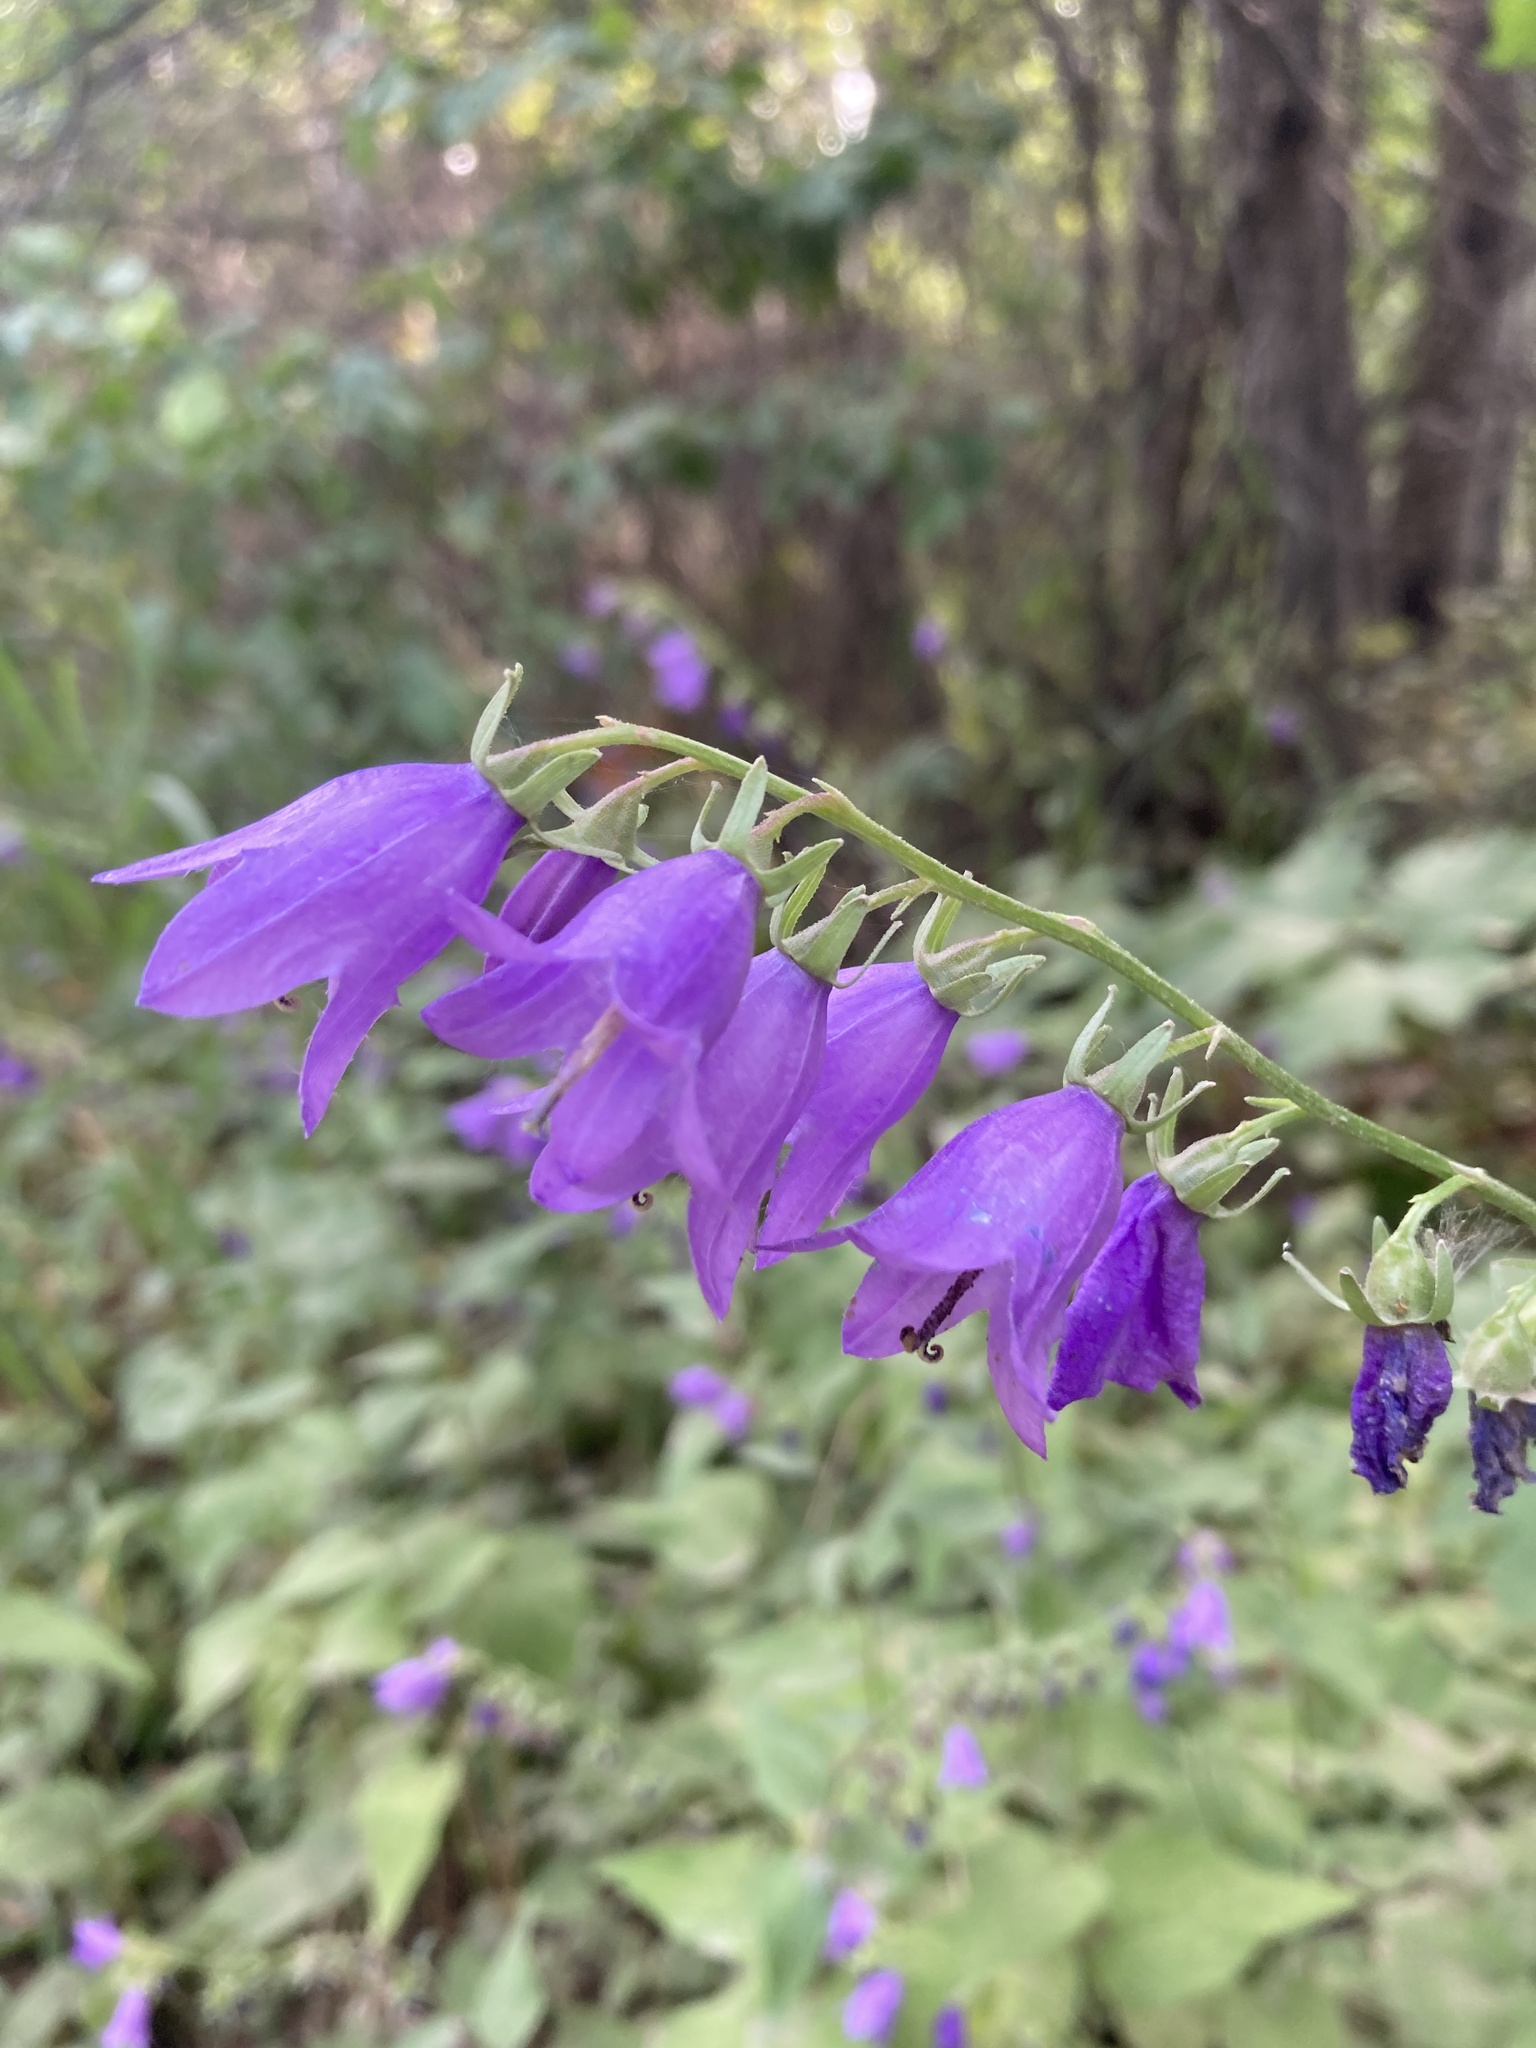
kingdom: Plantae
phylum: Tracheophyta
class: Magnoliopsida
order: Asterales
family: Campanulaceae
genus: Campanula
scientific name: Campanula rapunculoides
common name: Creeping bellflower
